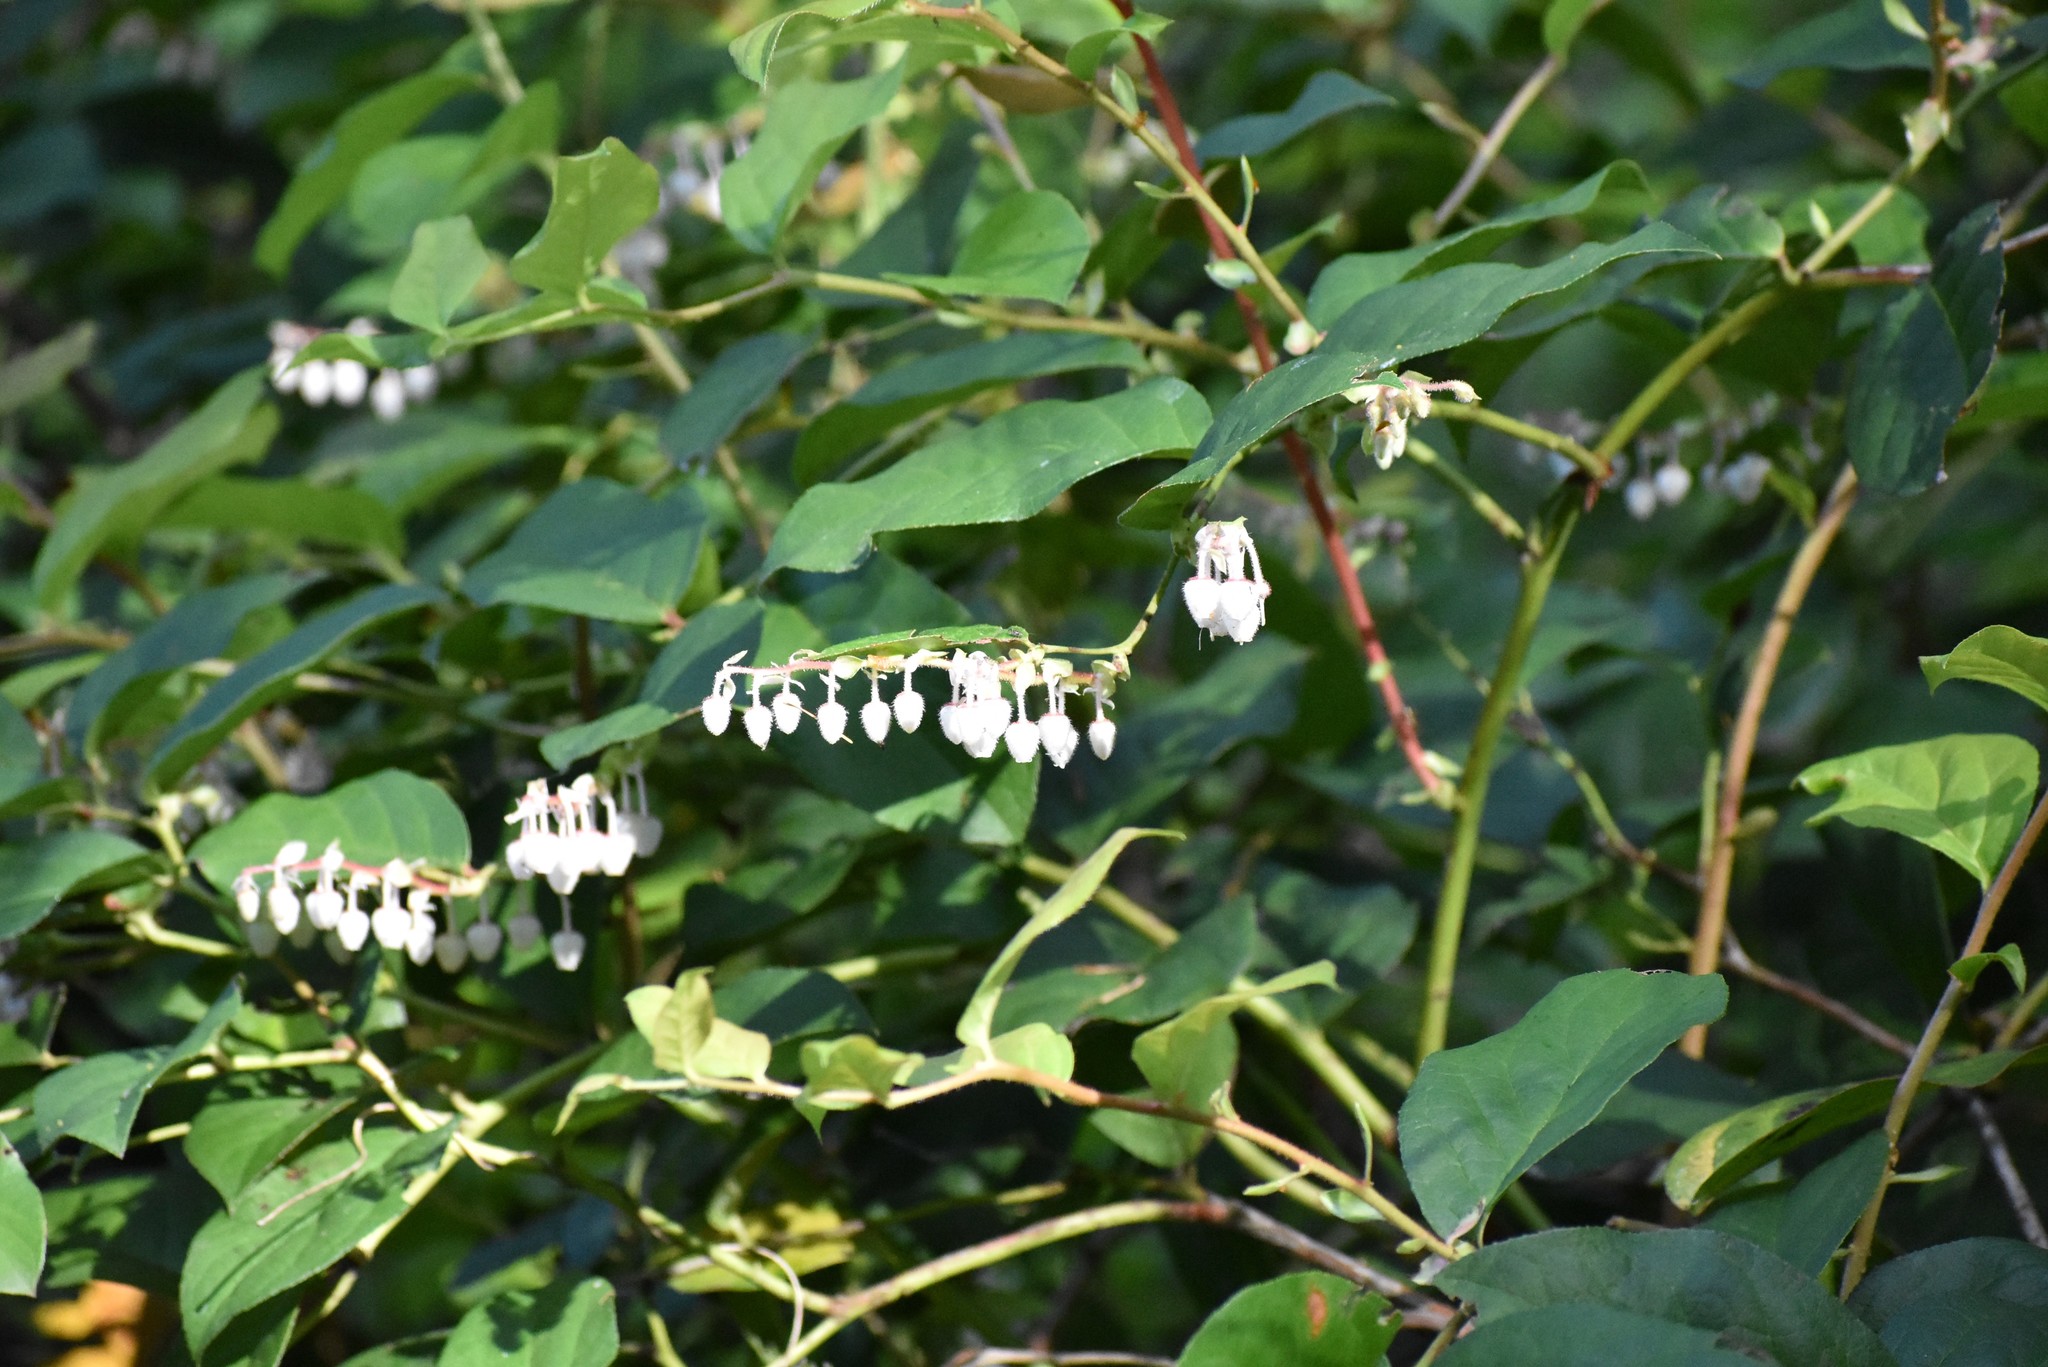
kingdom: Plantae
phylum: Tracheophyta
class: Magnoliopsida
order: Ericales
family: Ericaceae
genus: Gaultheria
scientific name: Gaultheria shallon
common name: Shallon
